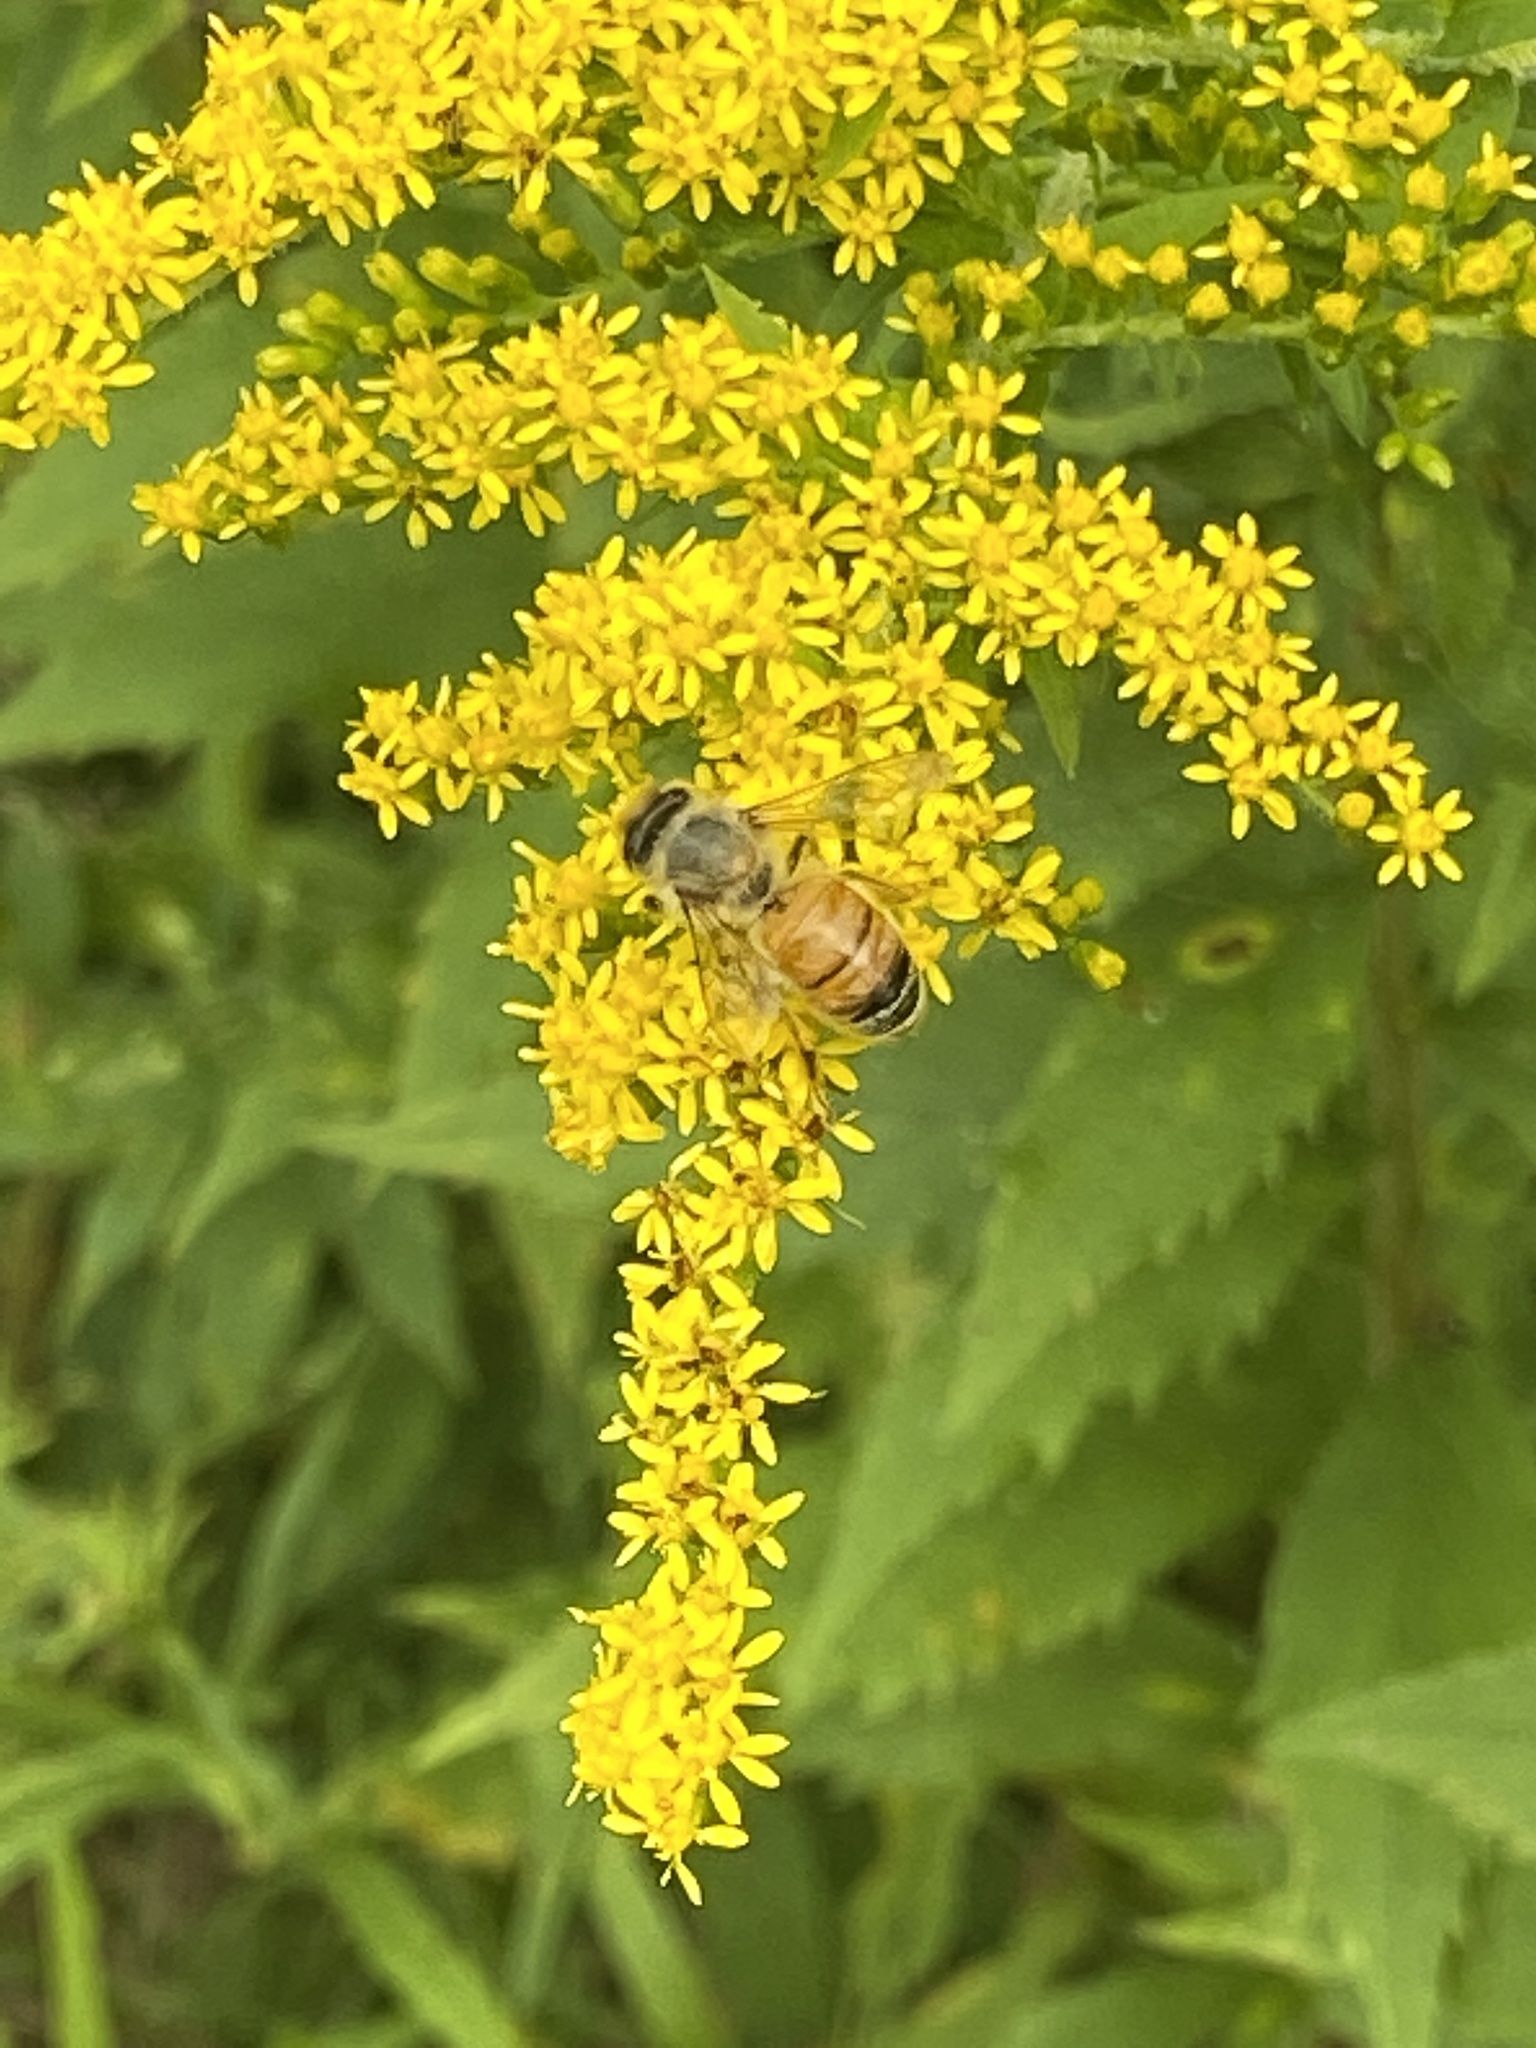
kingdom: Animalia
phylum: Arthropoda
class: Insecta
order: Hymenoptera
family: Apidae
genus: Apis
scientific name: Apis mellifera
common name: Honey bee
